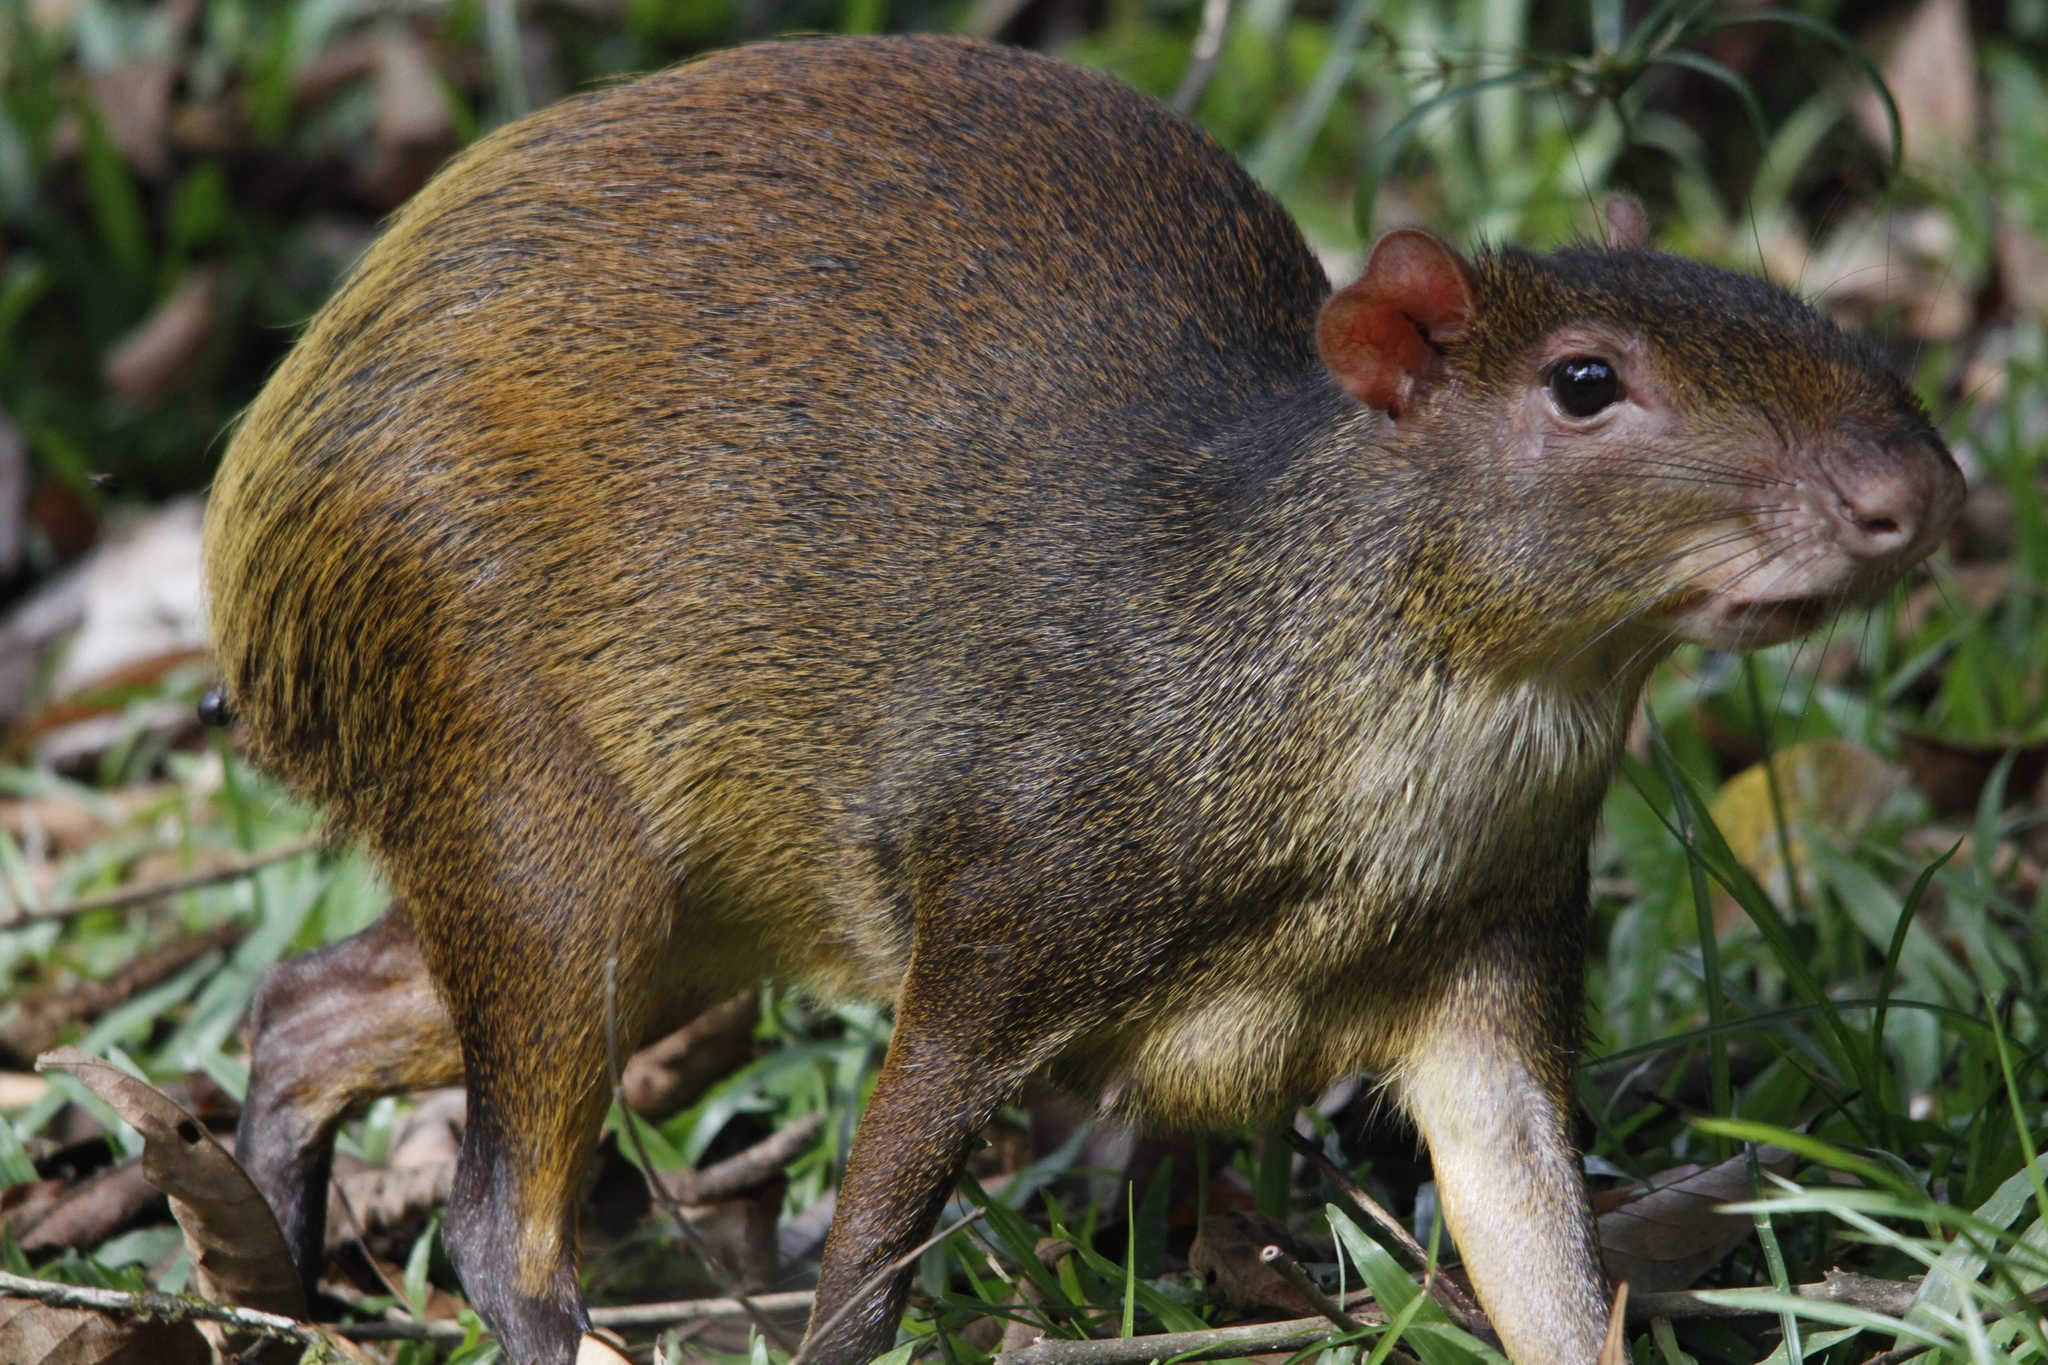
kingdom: Animalia
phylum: Chordata
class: Mammalia
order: Rodentia
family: Dasyproctidae
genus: Dasyprocta
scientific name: Dasyprocta punctata
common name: Central american agouti
